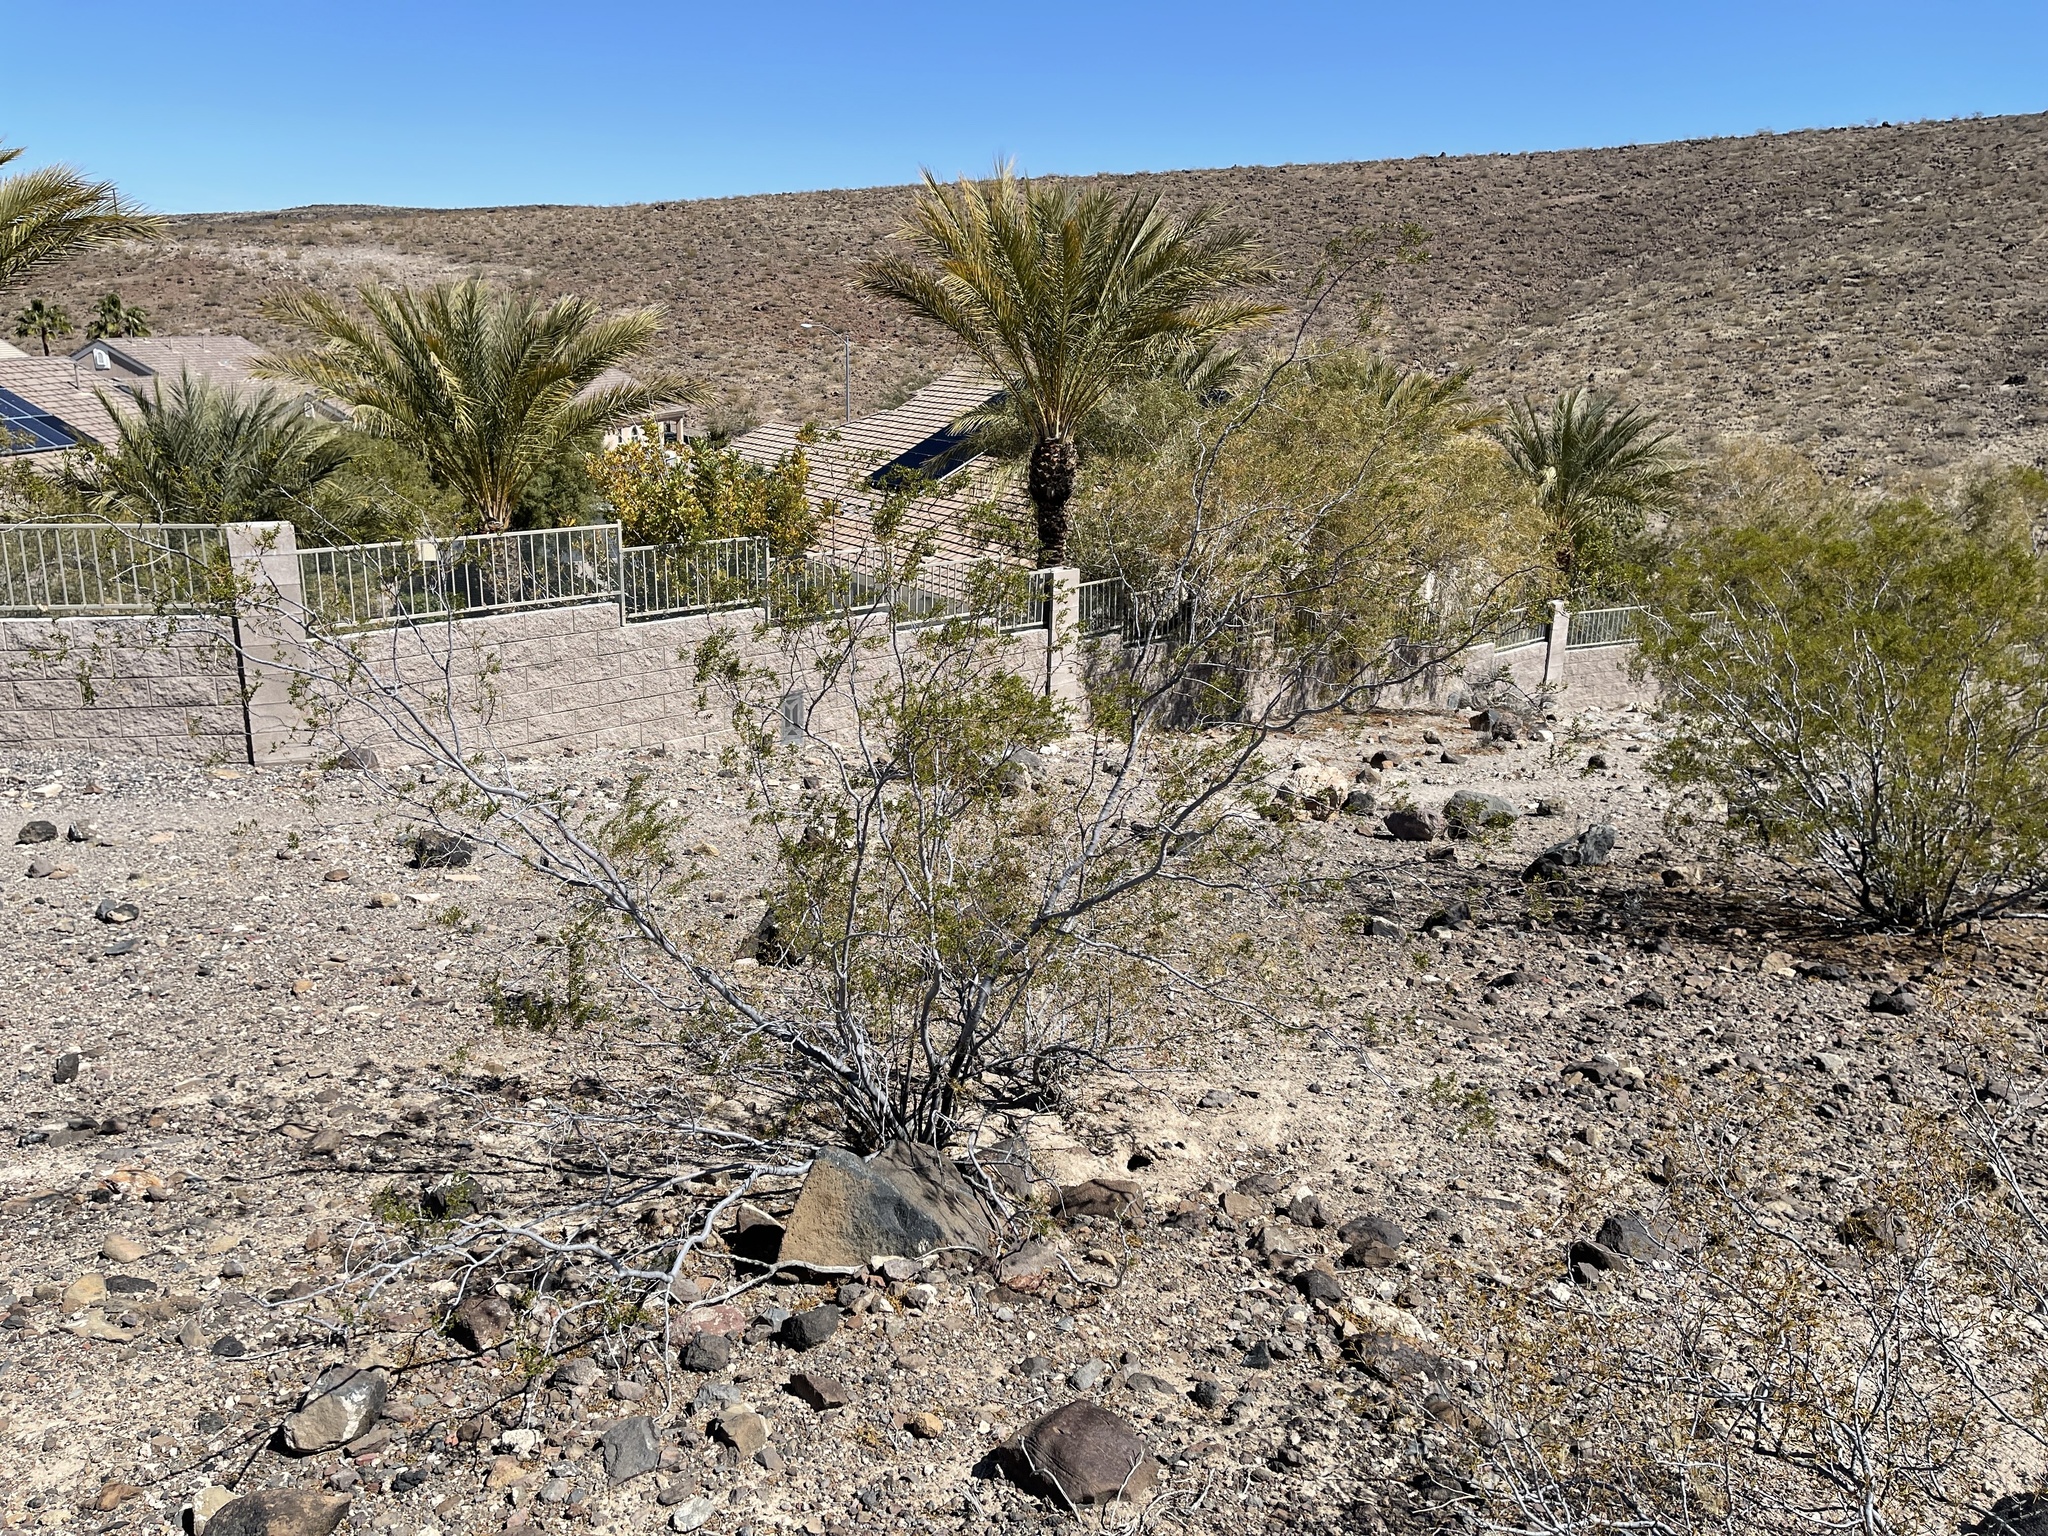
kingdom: Plantae
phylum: Tracheophyta
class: Magnoliopsida
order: Zygophyllales
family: Zygophyllaceae
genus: Larrea
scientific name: Larrea tridentata
